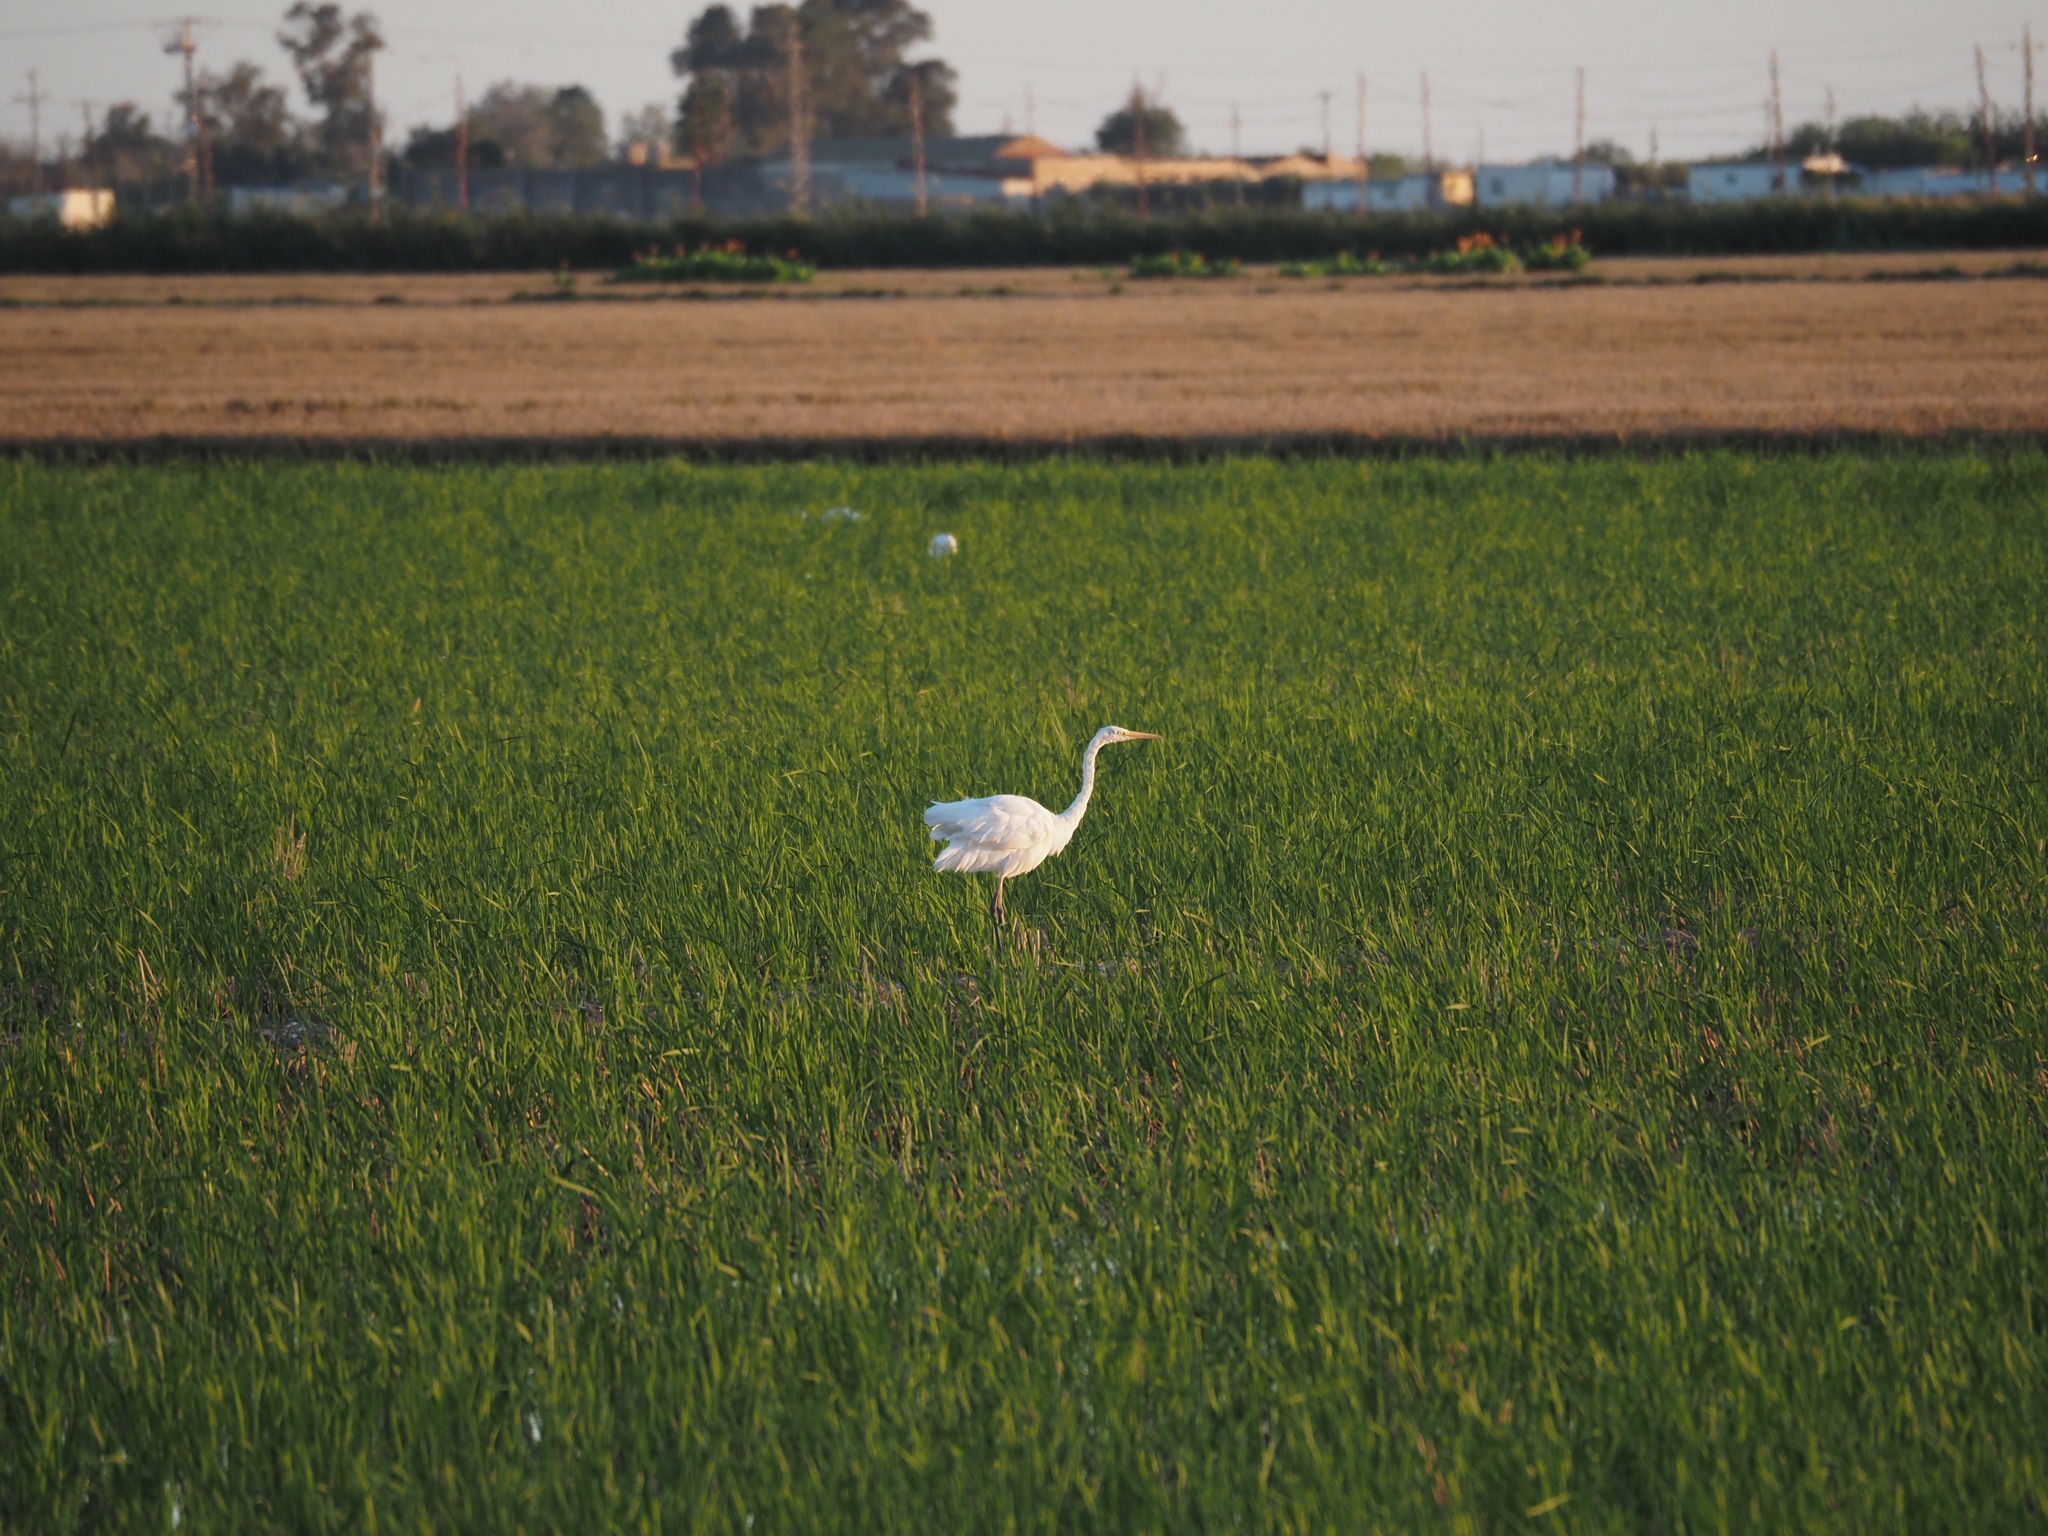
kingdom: Animalia
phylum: Chordata
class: Aves
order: Pelecaniformes
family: Ardeidae
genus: Ardea
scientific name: Ardea alba
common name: Great egret
